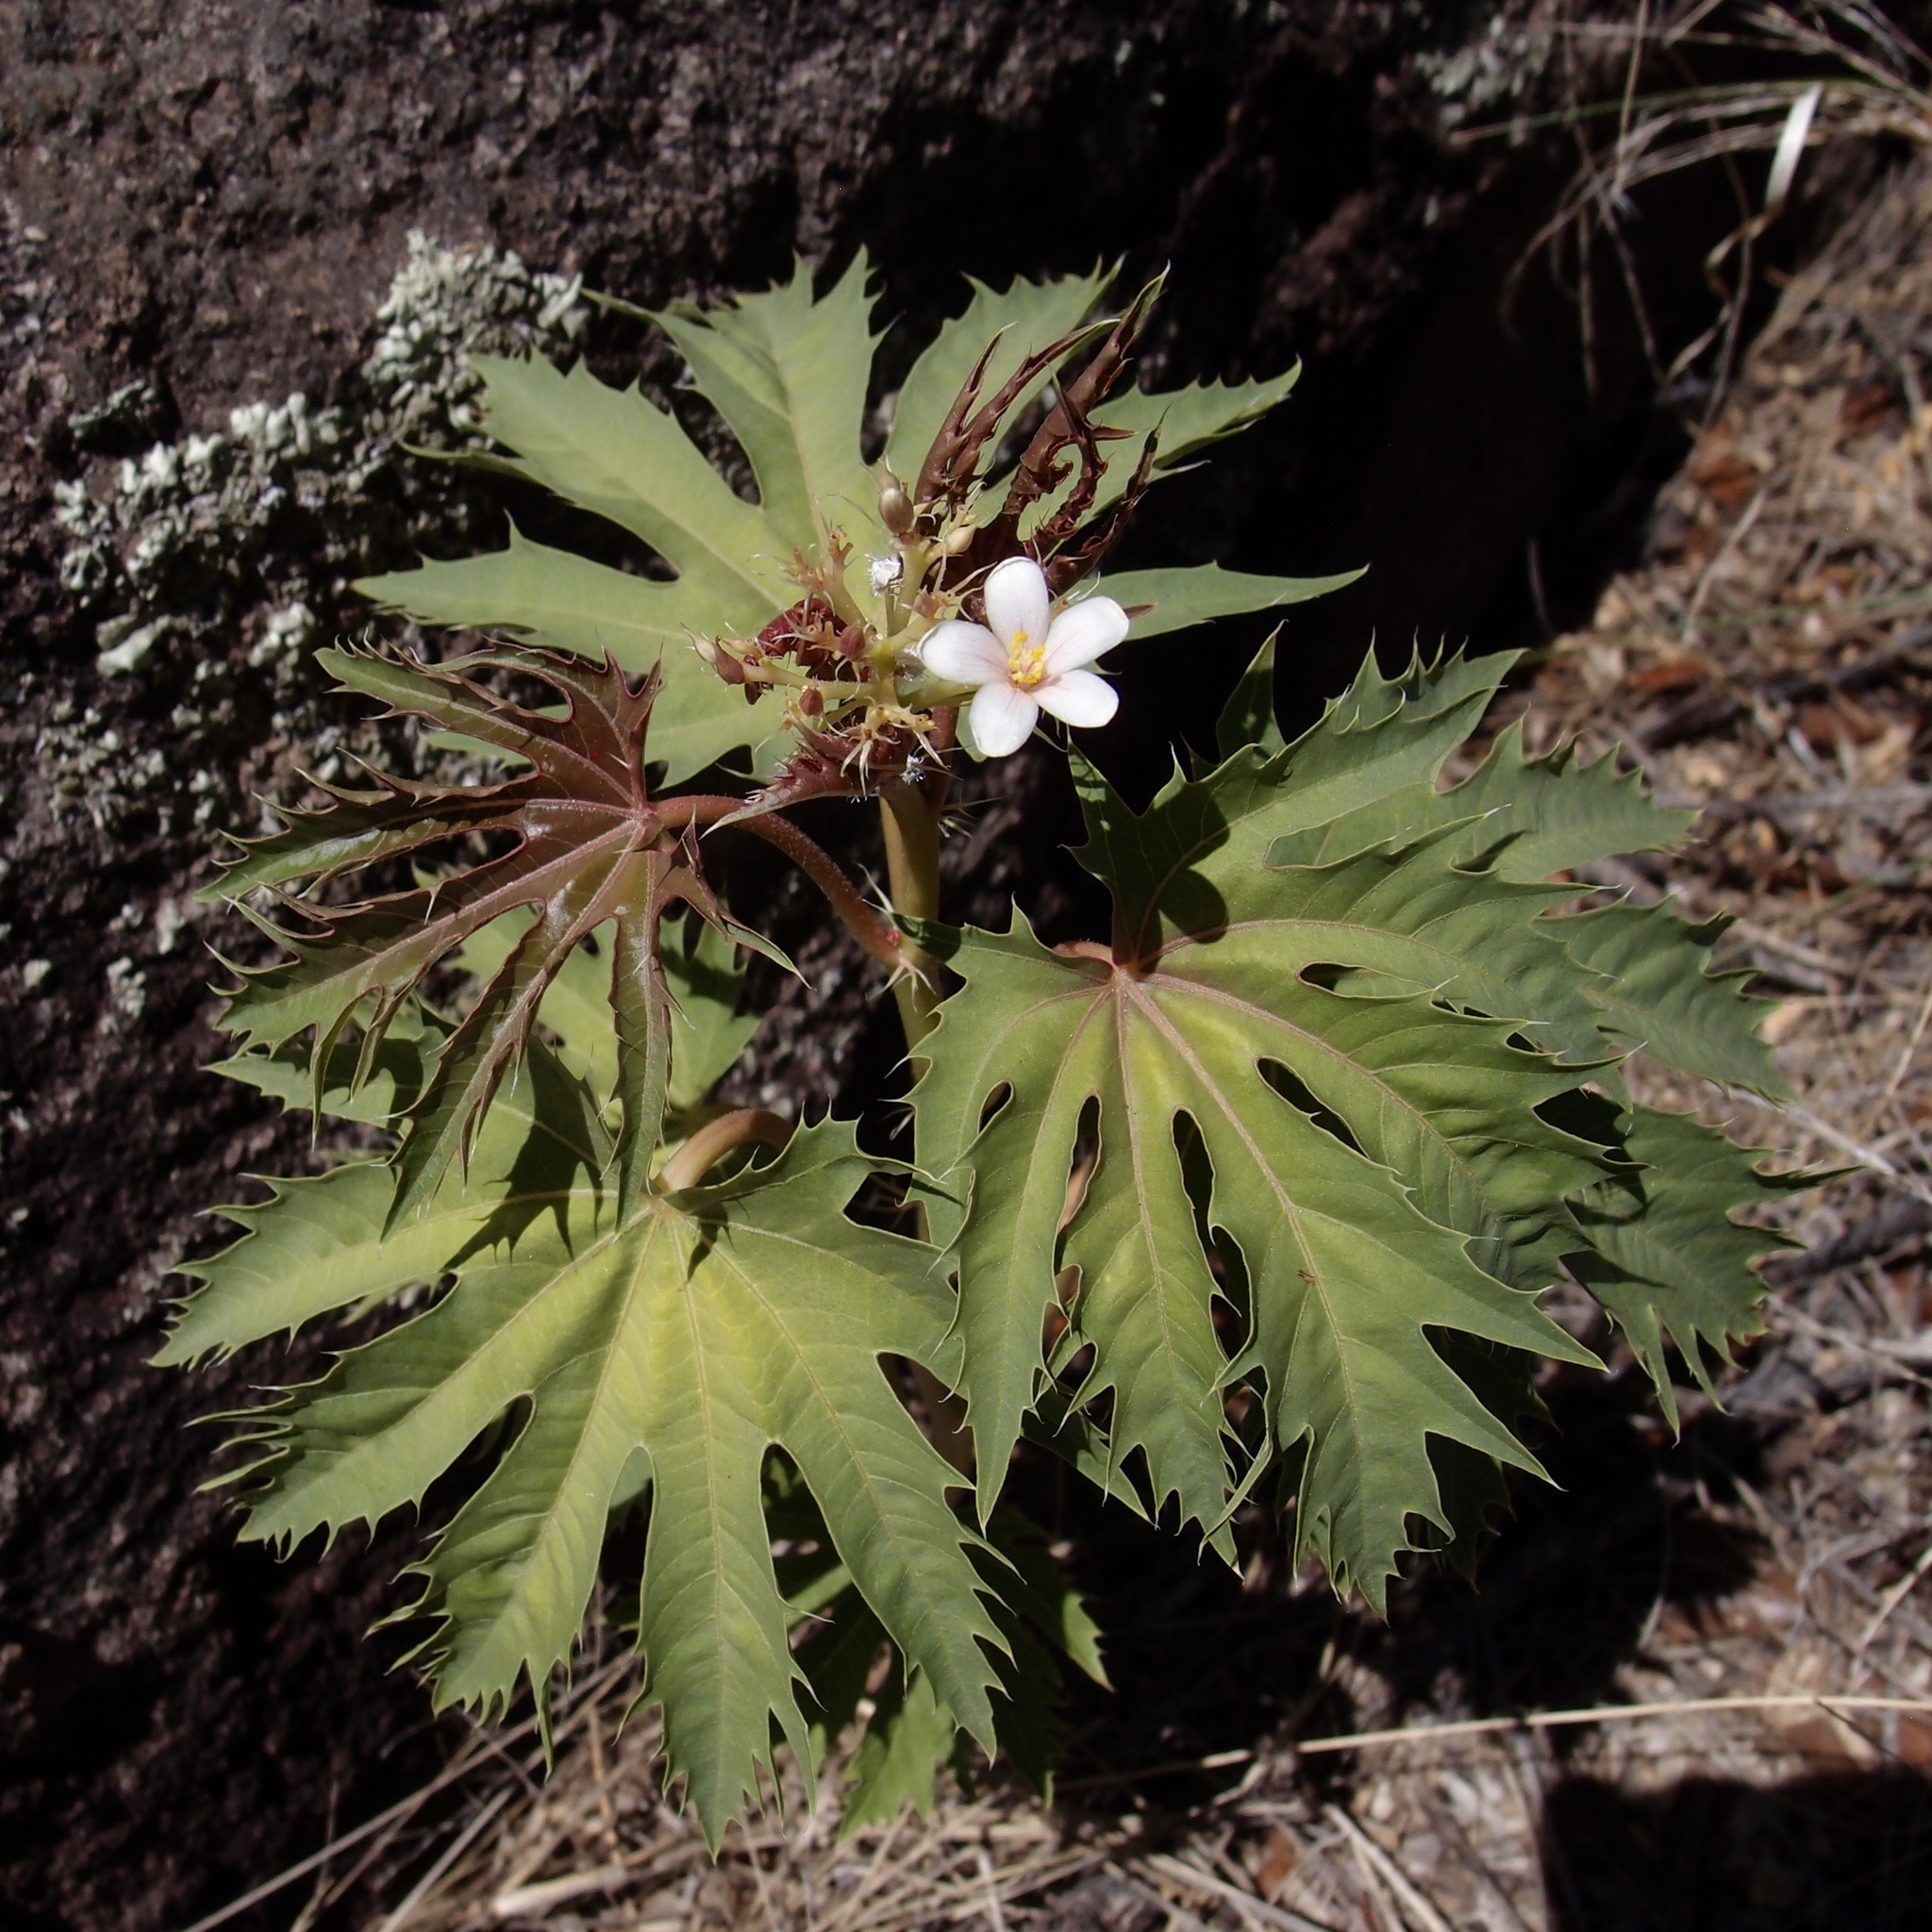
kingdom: Plantae
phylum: Tracheophyta
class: Magnoliopsida
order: Malpighiales
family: Euphorbiaceae
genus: Jatropha
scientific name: Jatropha macrorhiza
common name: Ragged nettlespurge
